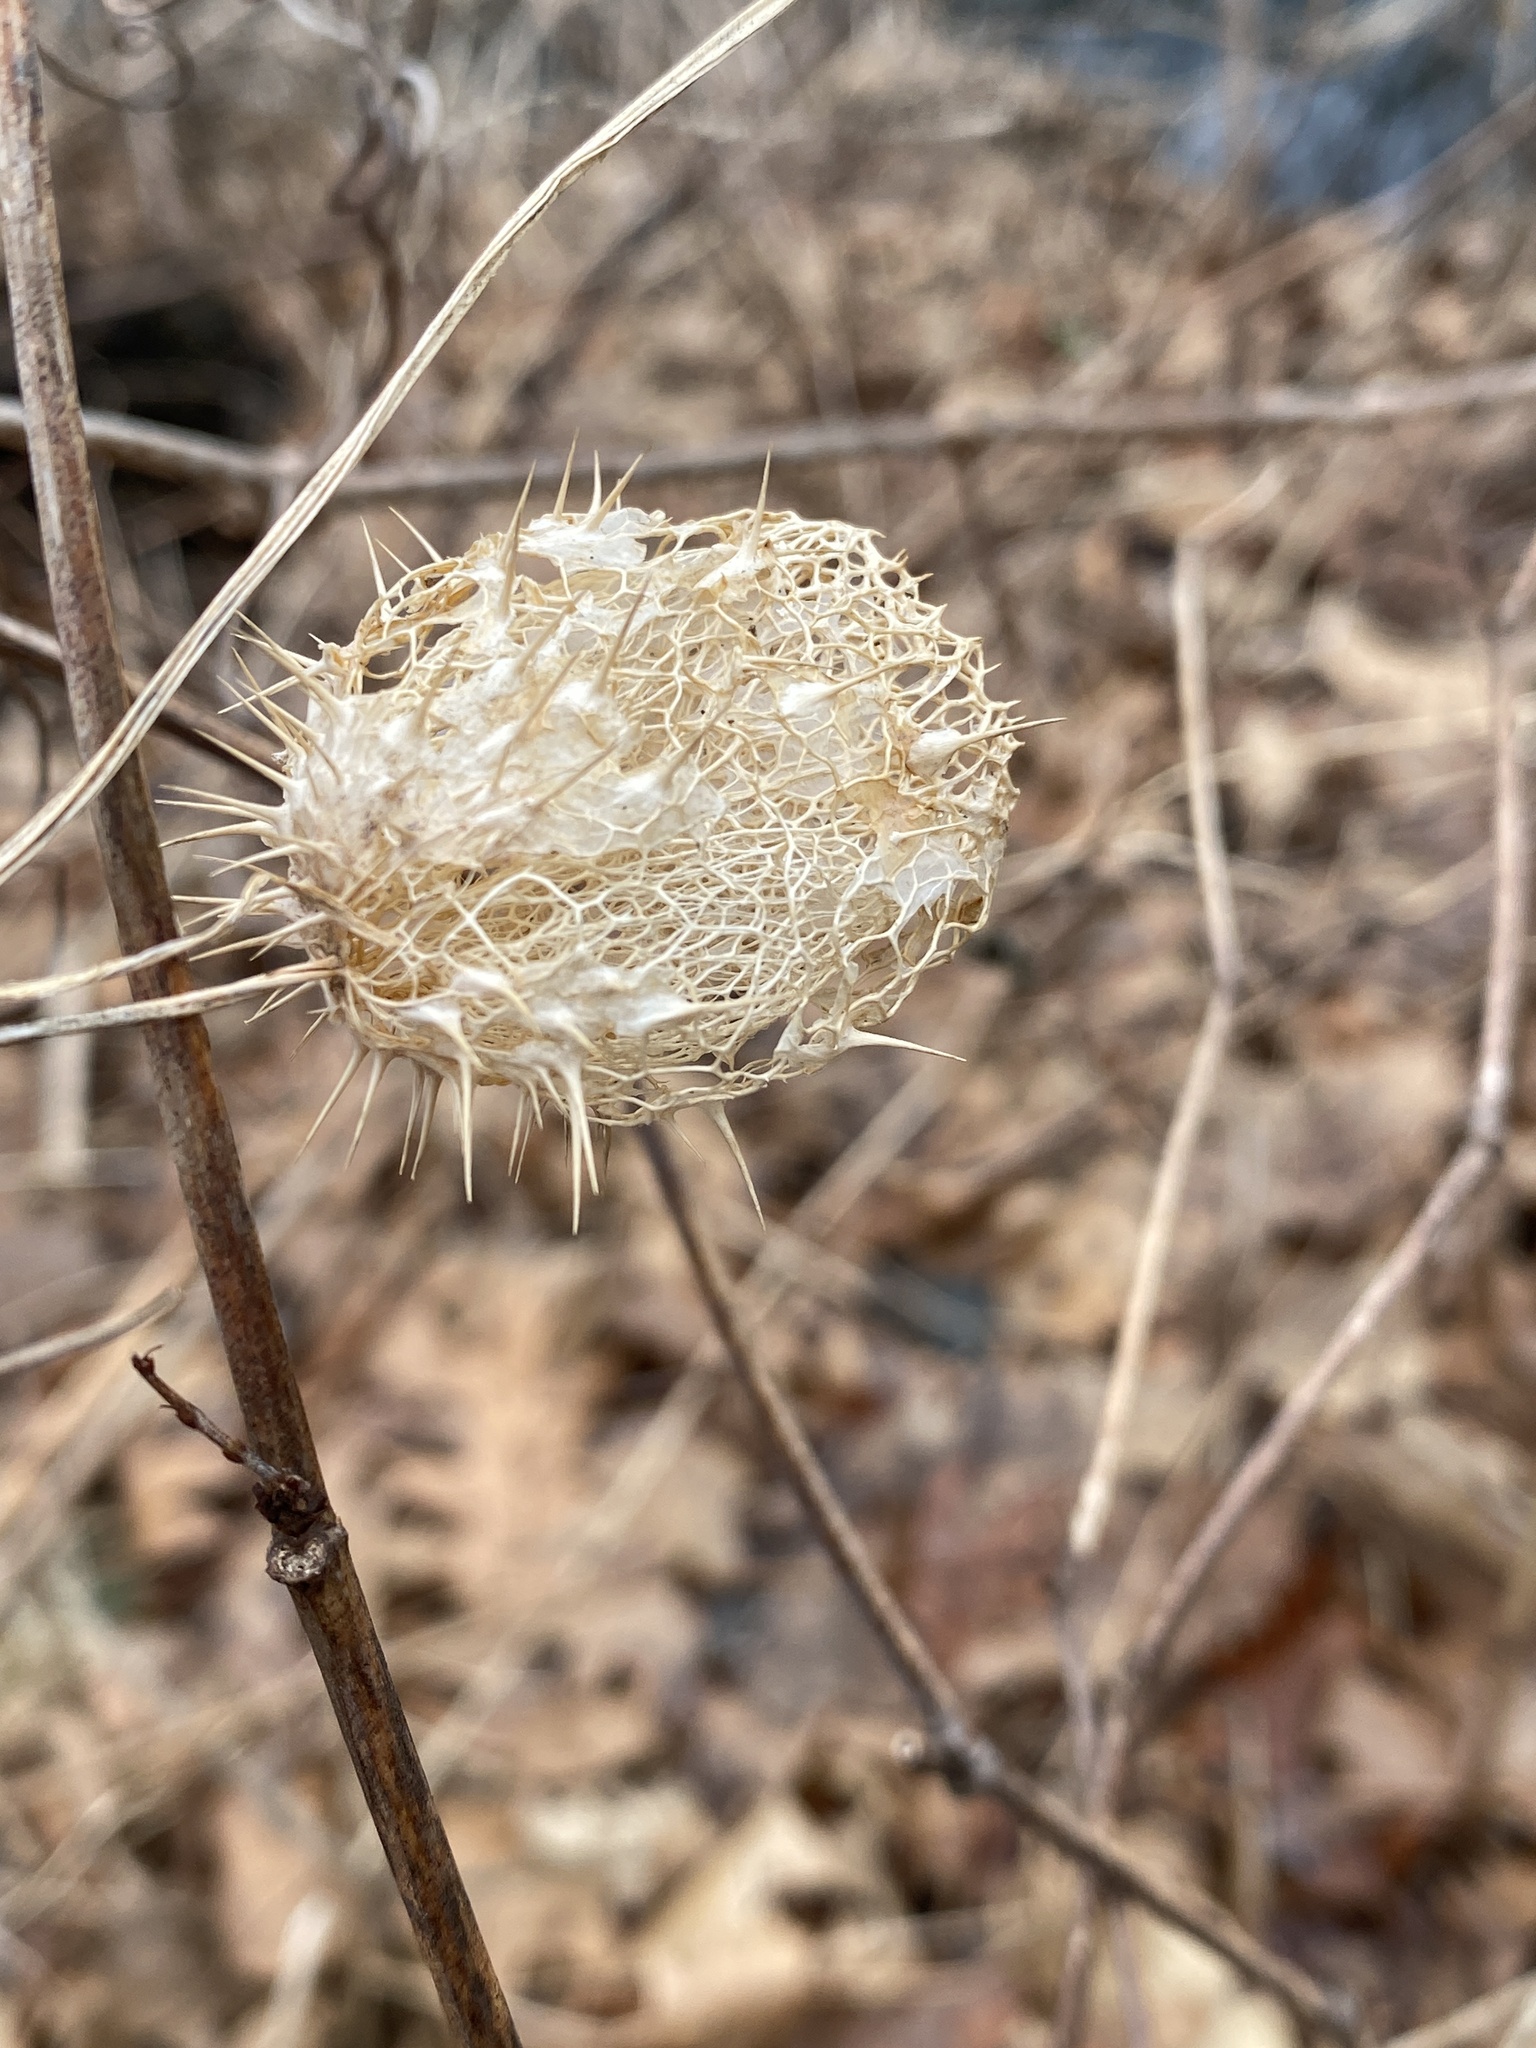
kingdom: Plantae
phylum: Tracheophyta
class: Magnoliopsida
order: Cucurbitales
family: Cucurbitaceae
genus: Echinocystis
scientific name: Echinocystis lobata
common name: Wild cucumber
